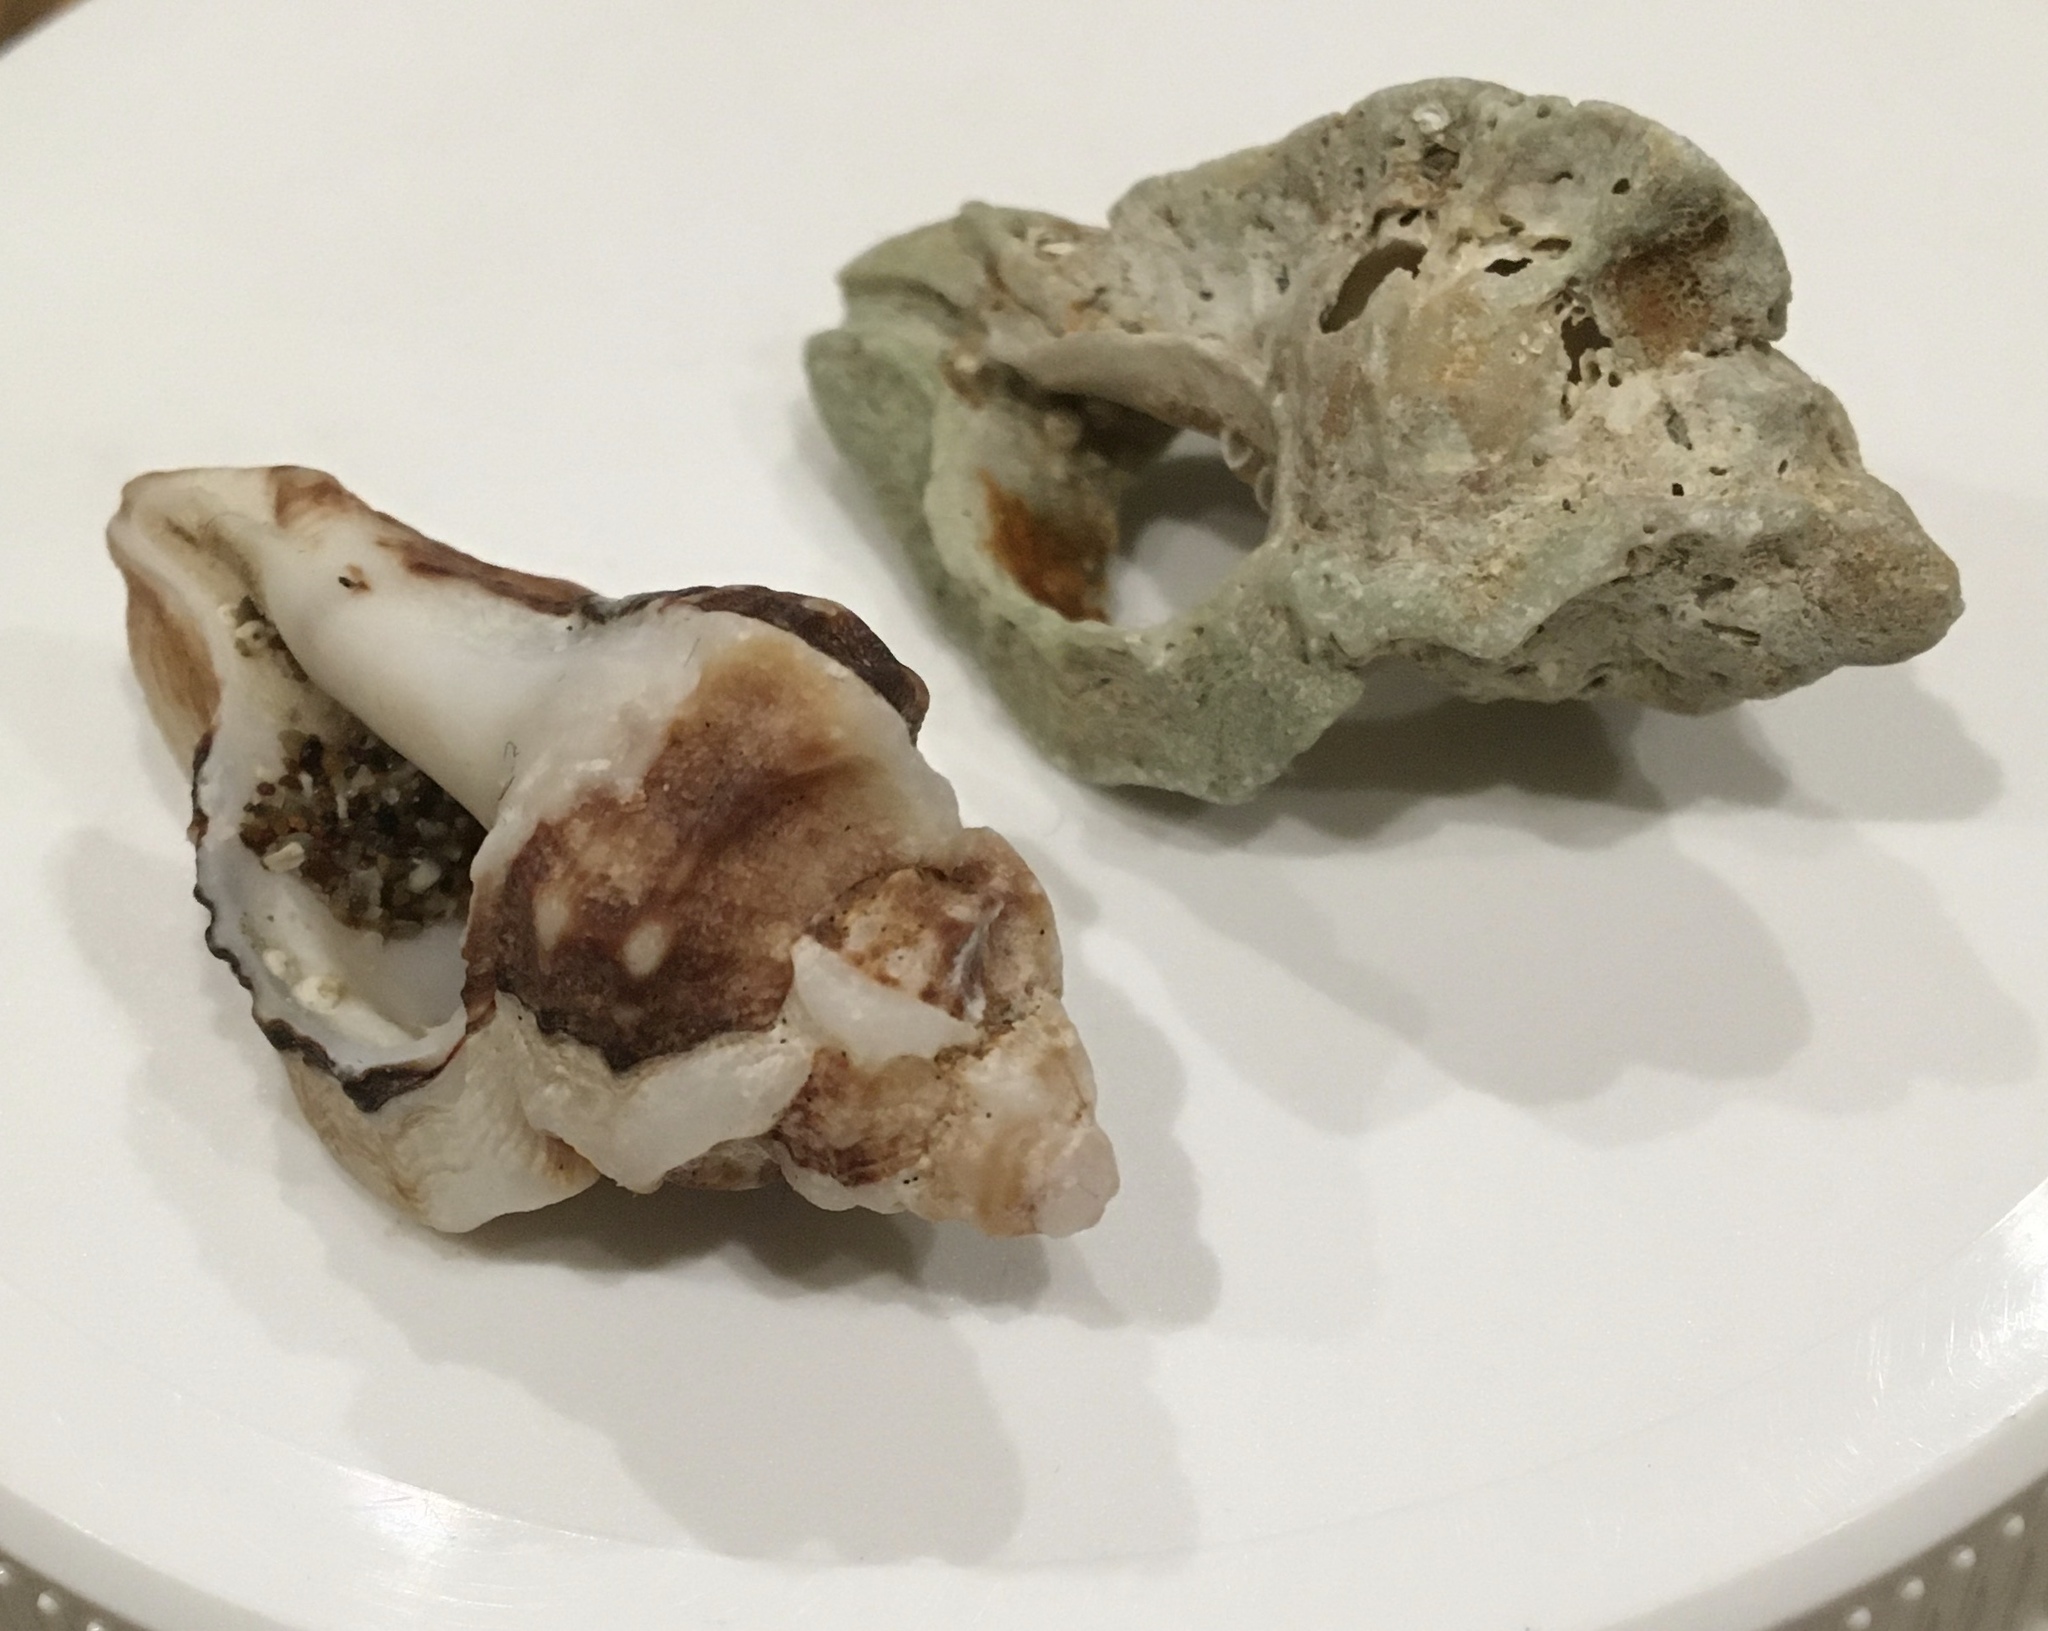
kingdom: Animalia
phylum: Mollusca
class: Gastropoda
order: Neogastropoda
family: Muricidae
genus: Ceratostoma
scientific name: Ceratostoma foliatum
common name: Foliate thorn purpura
